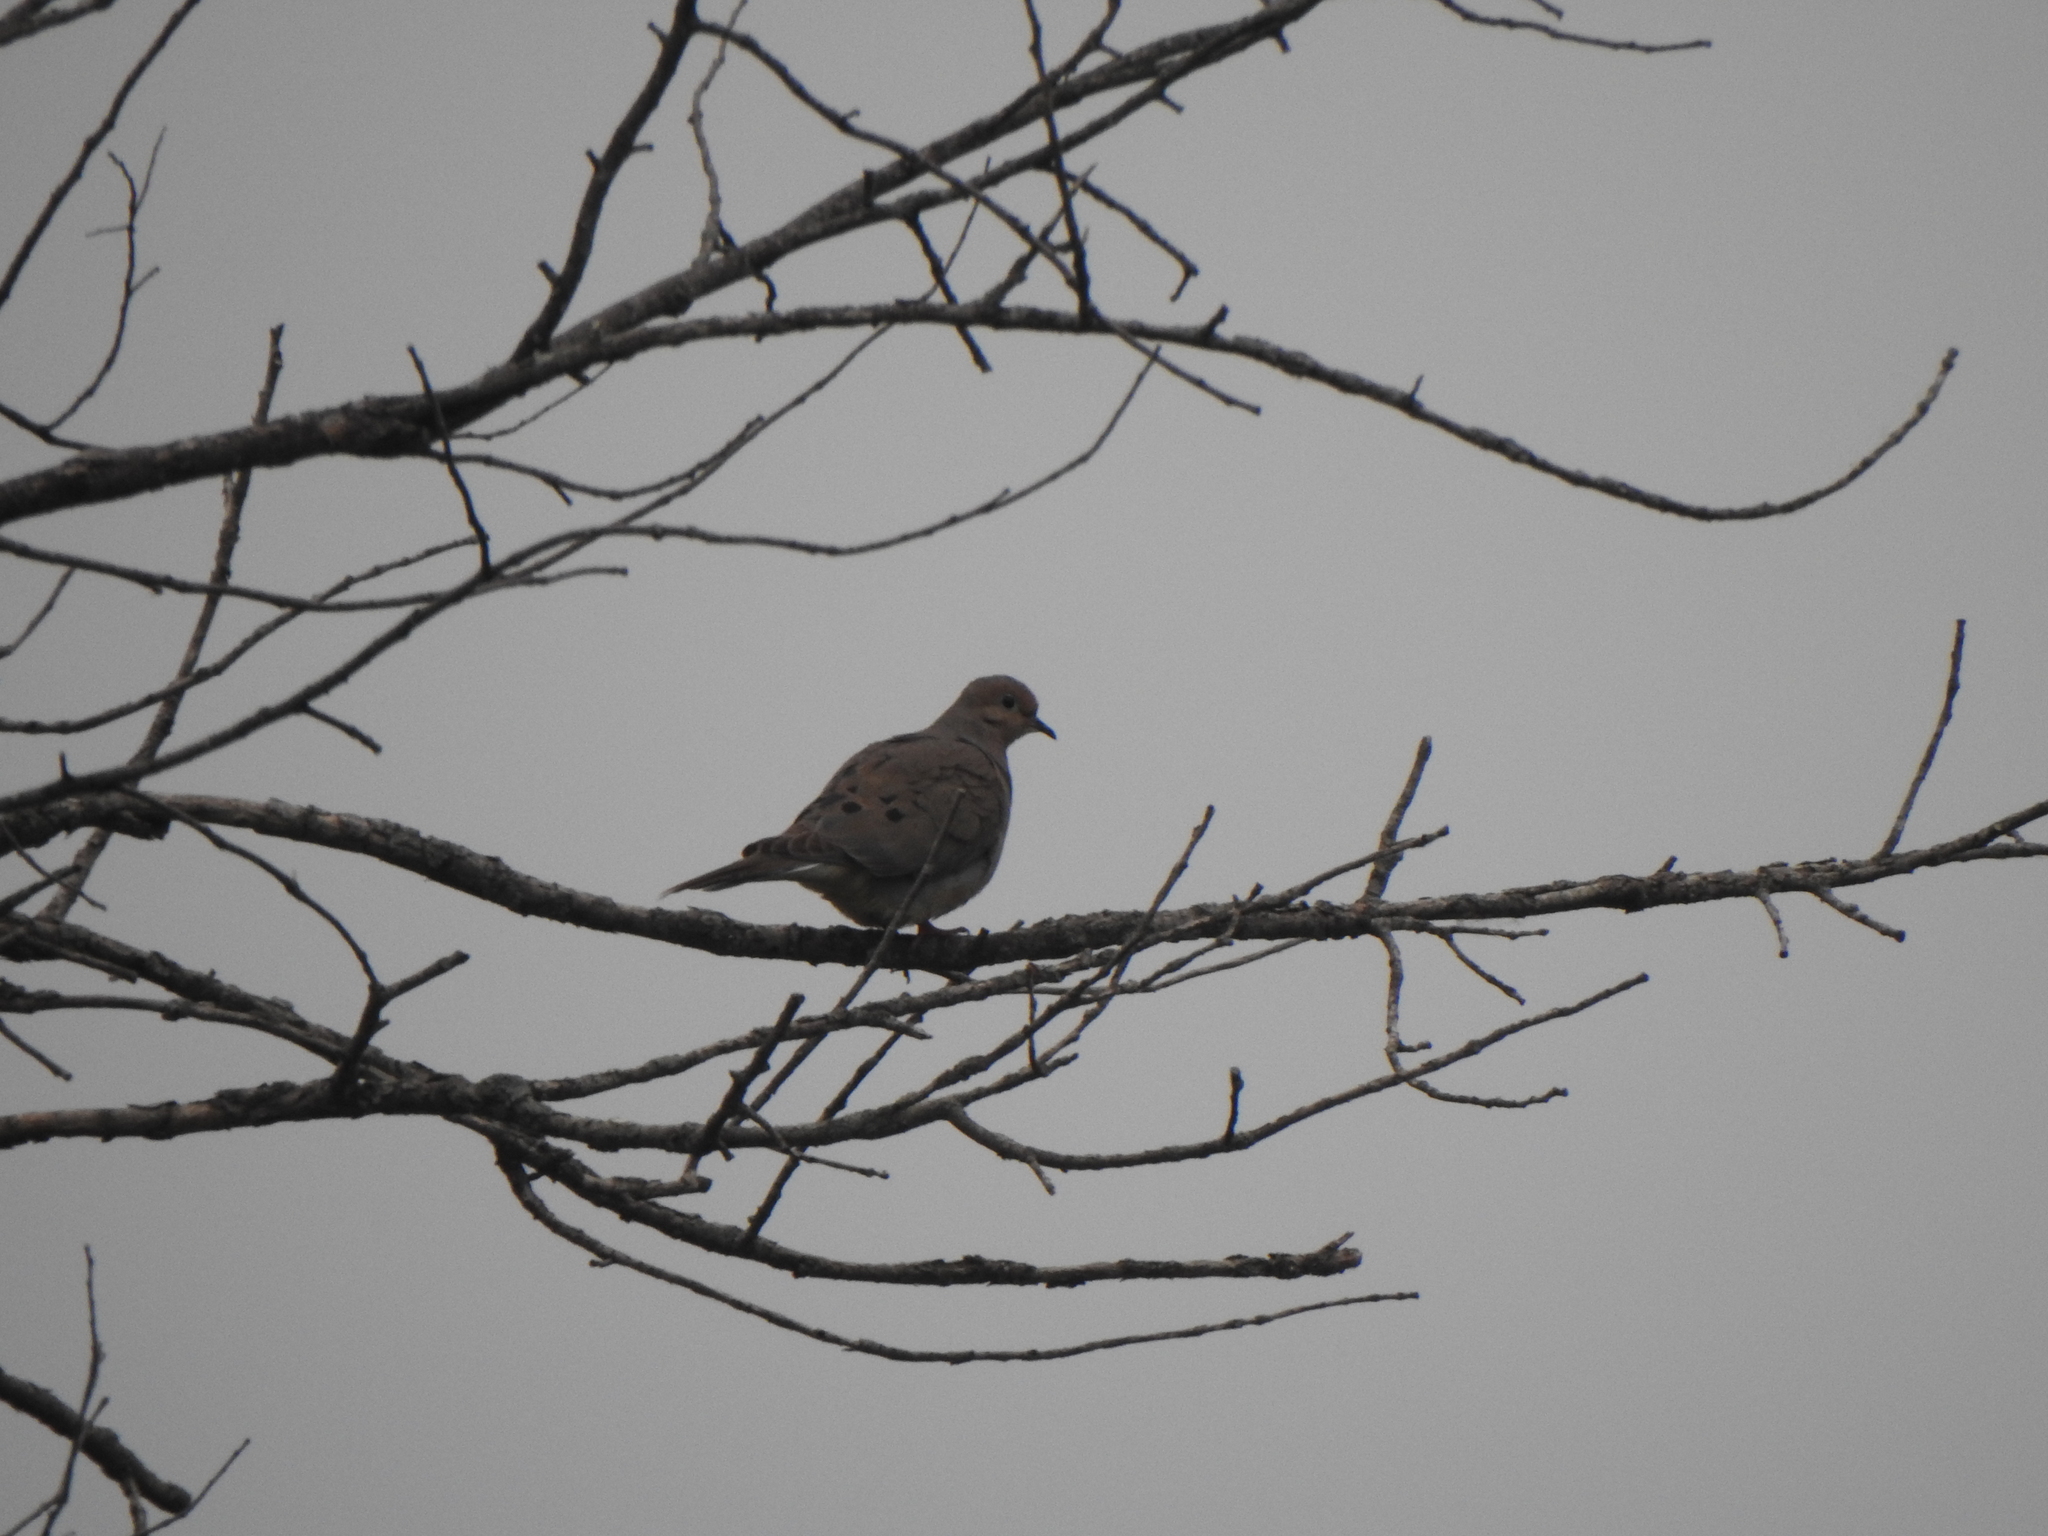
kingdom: Animalia
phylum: Chordata
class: Aves
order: Columbiformes
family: Columbidae
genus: Zenaida
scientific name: Zenaida macroura
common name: Mourning dove
